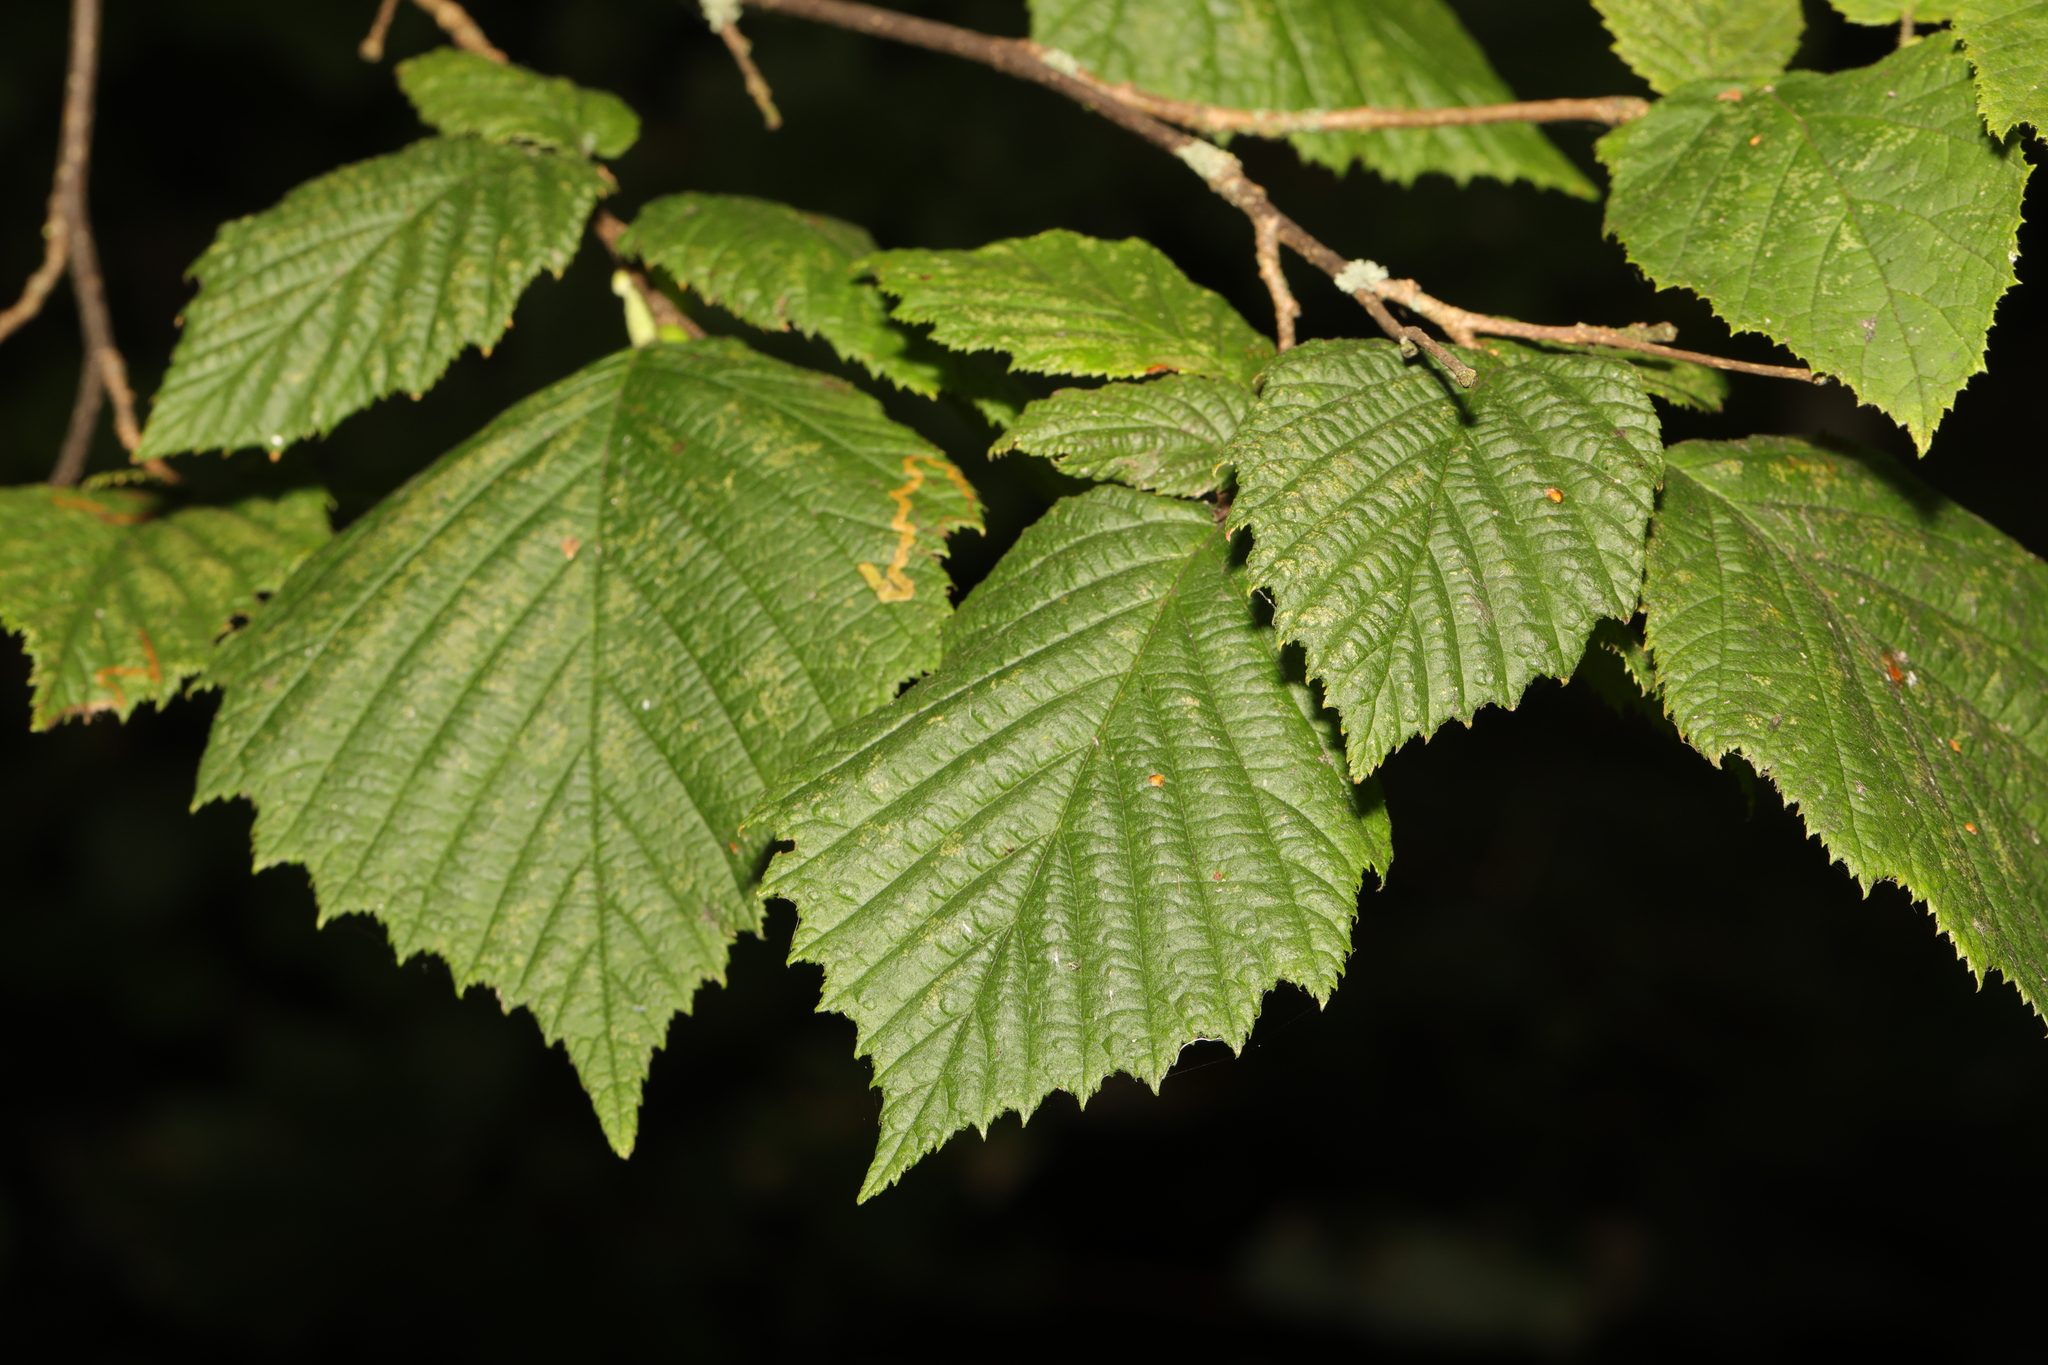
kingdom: Plantae
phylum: Tracheophyta
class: Magnoliopsida
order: Fagales
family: Betulaceae
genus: Corylus
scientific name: Corylus avellana
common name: European hazel
